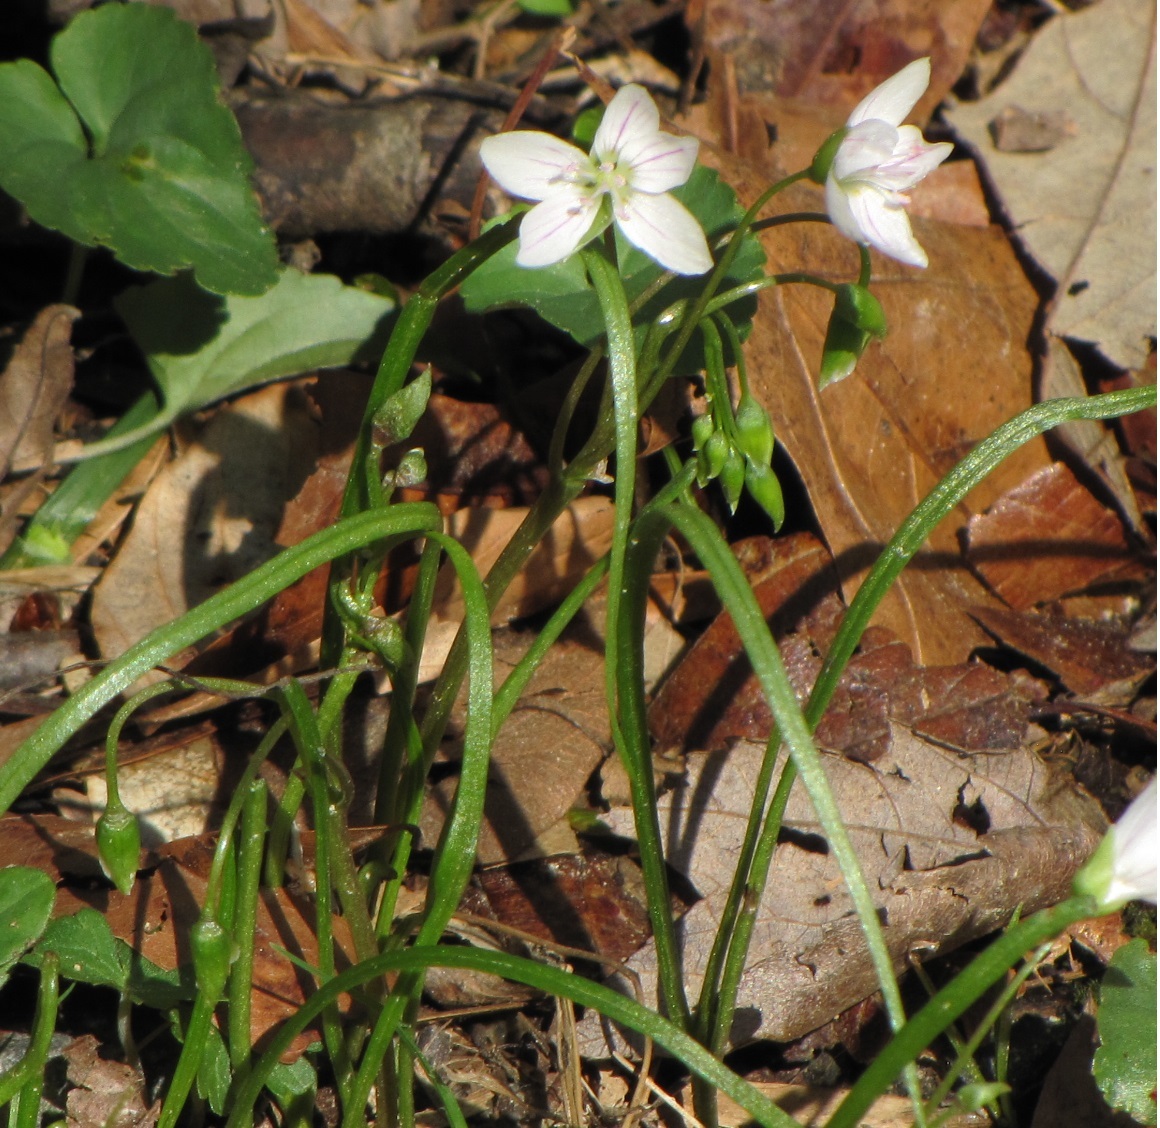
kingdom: Plantae
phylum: Tracheophyta
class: Magnoliopsida
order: Caryophyllales
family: Montiaceae
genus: Claytonia
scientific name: Claytonia virginica
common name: Virginia springbeauty
